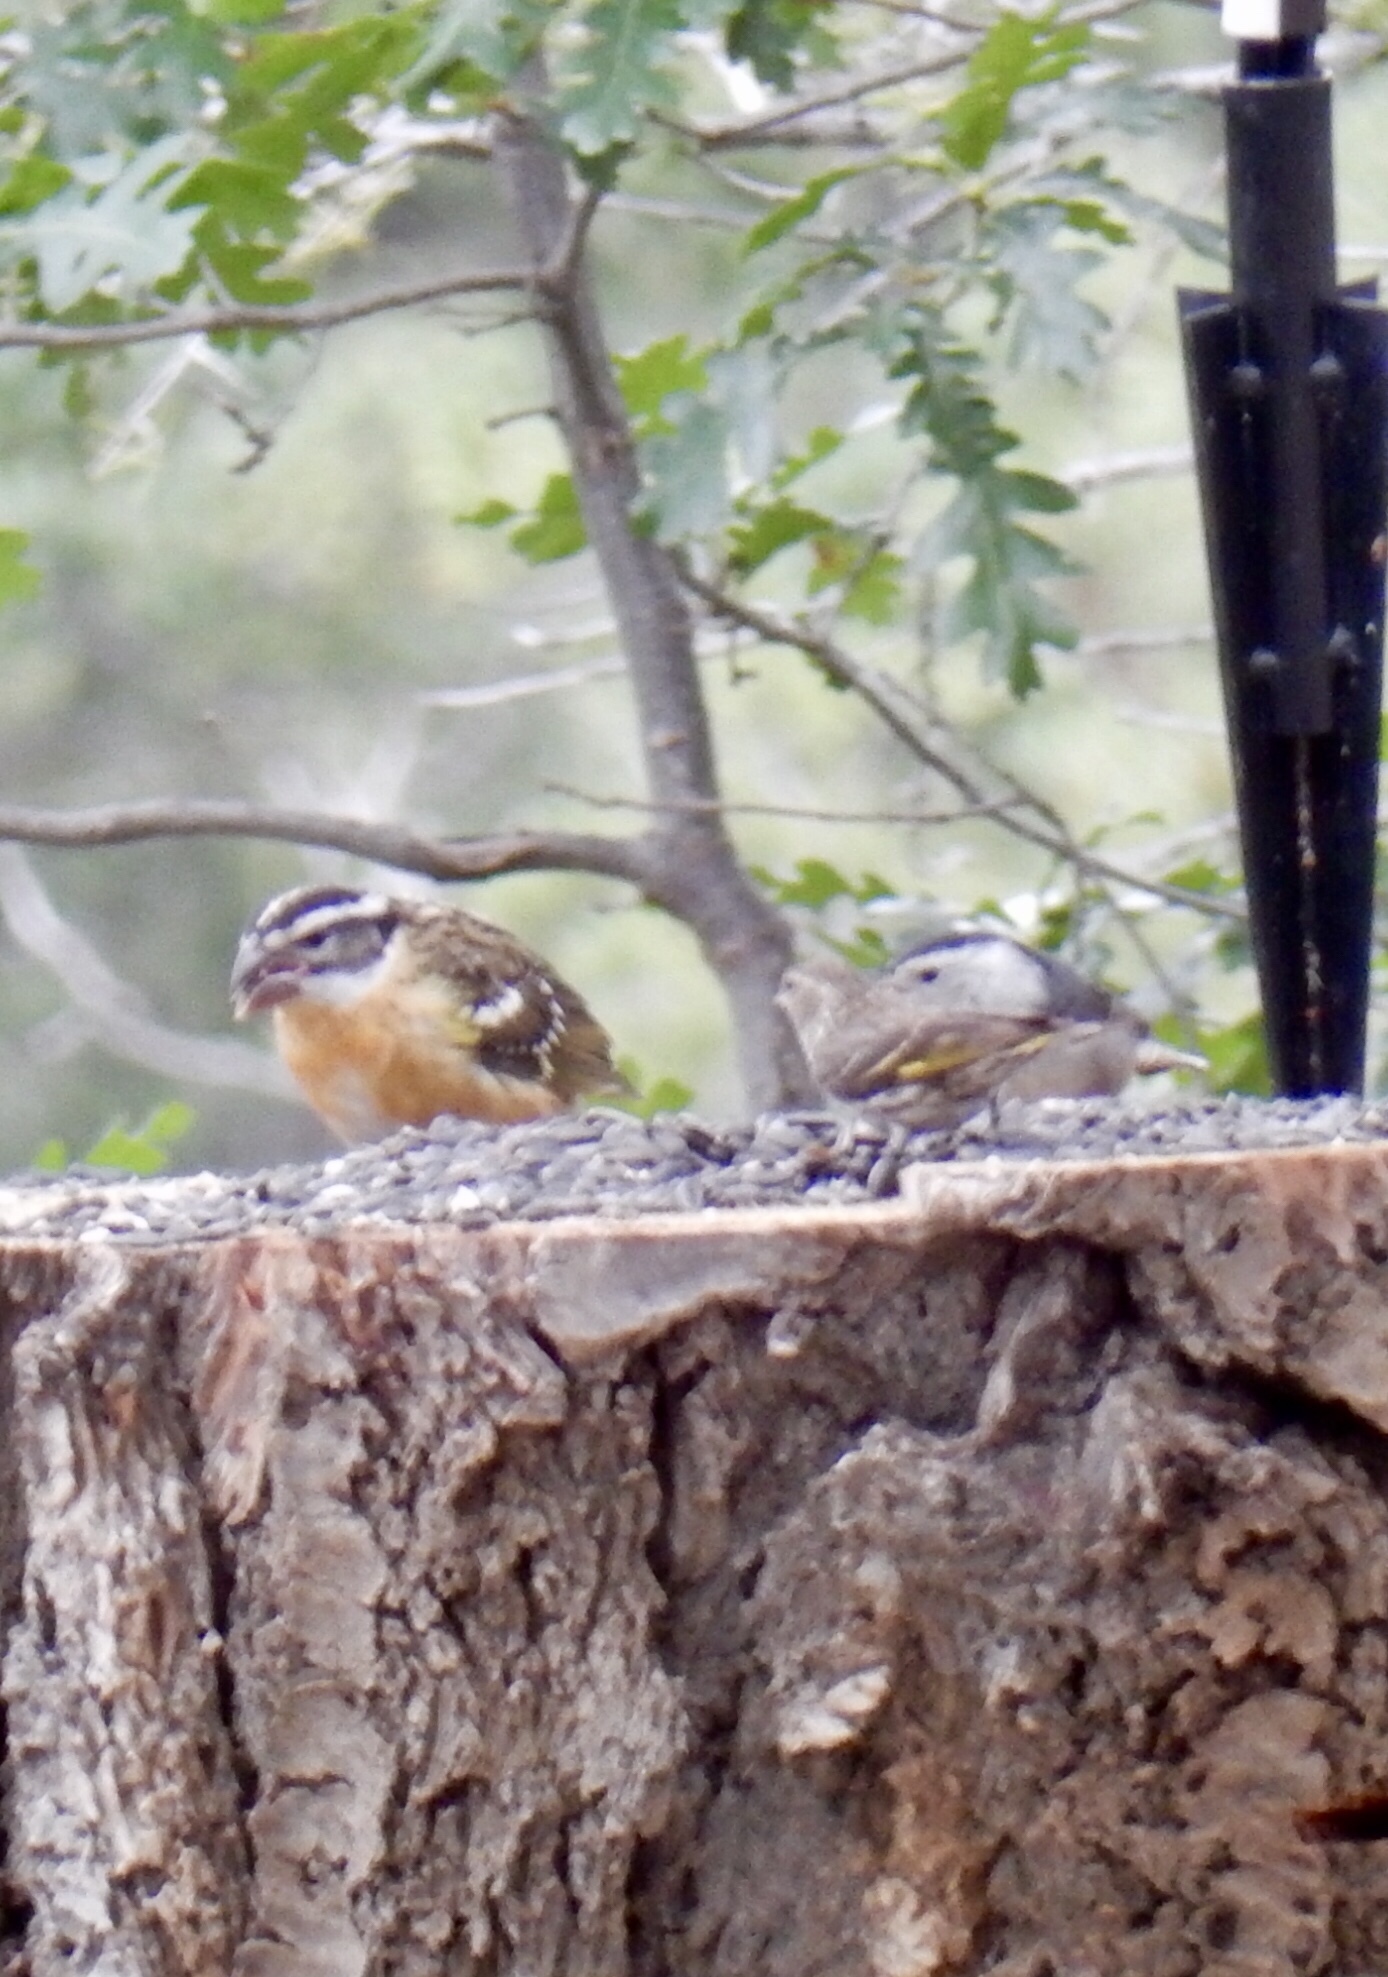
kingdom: Animalia
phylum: Chordata
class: Aves
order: Passeriformes
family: Cardinalidae
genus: Pheucticus
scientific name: Pheucticus melanocephalus
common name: Black-headed grosbeak
